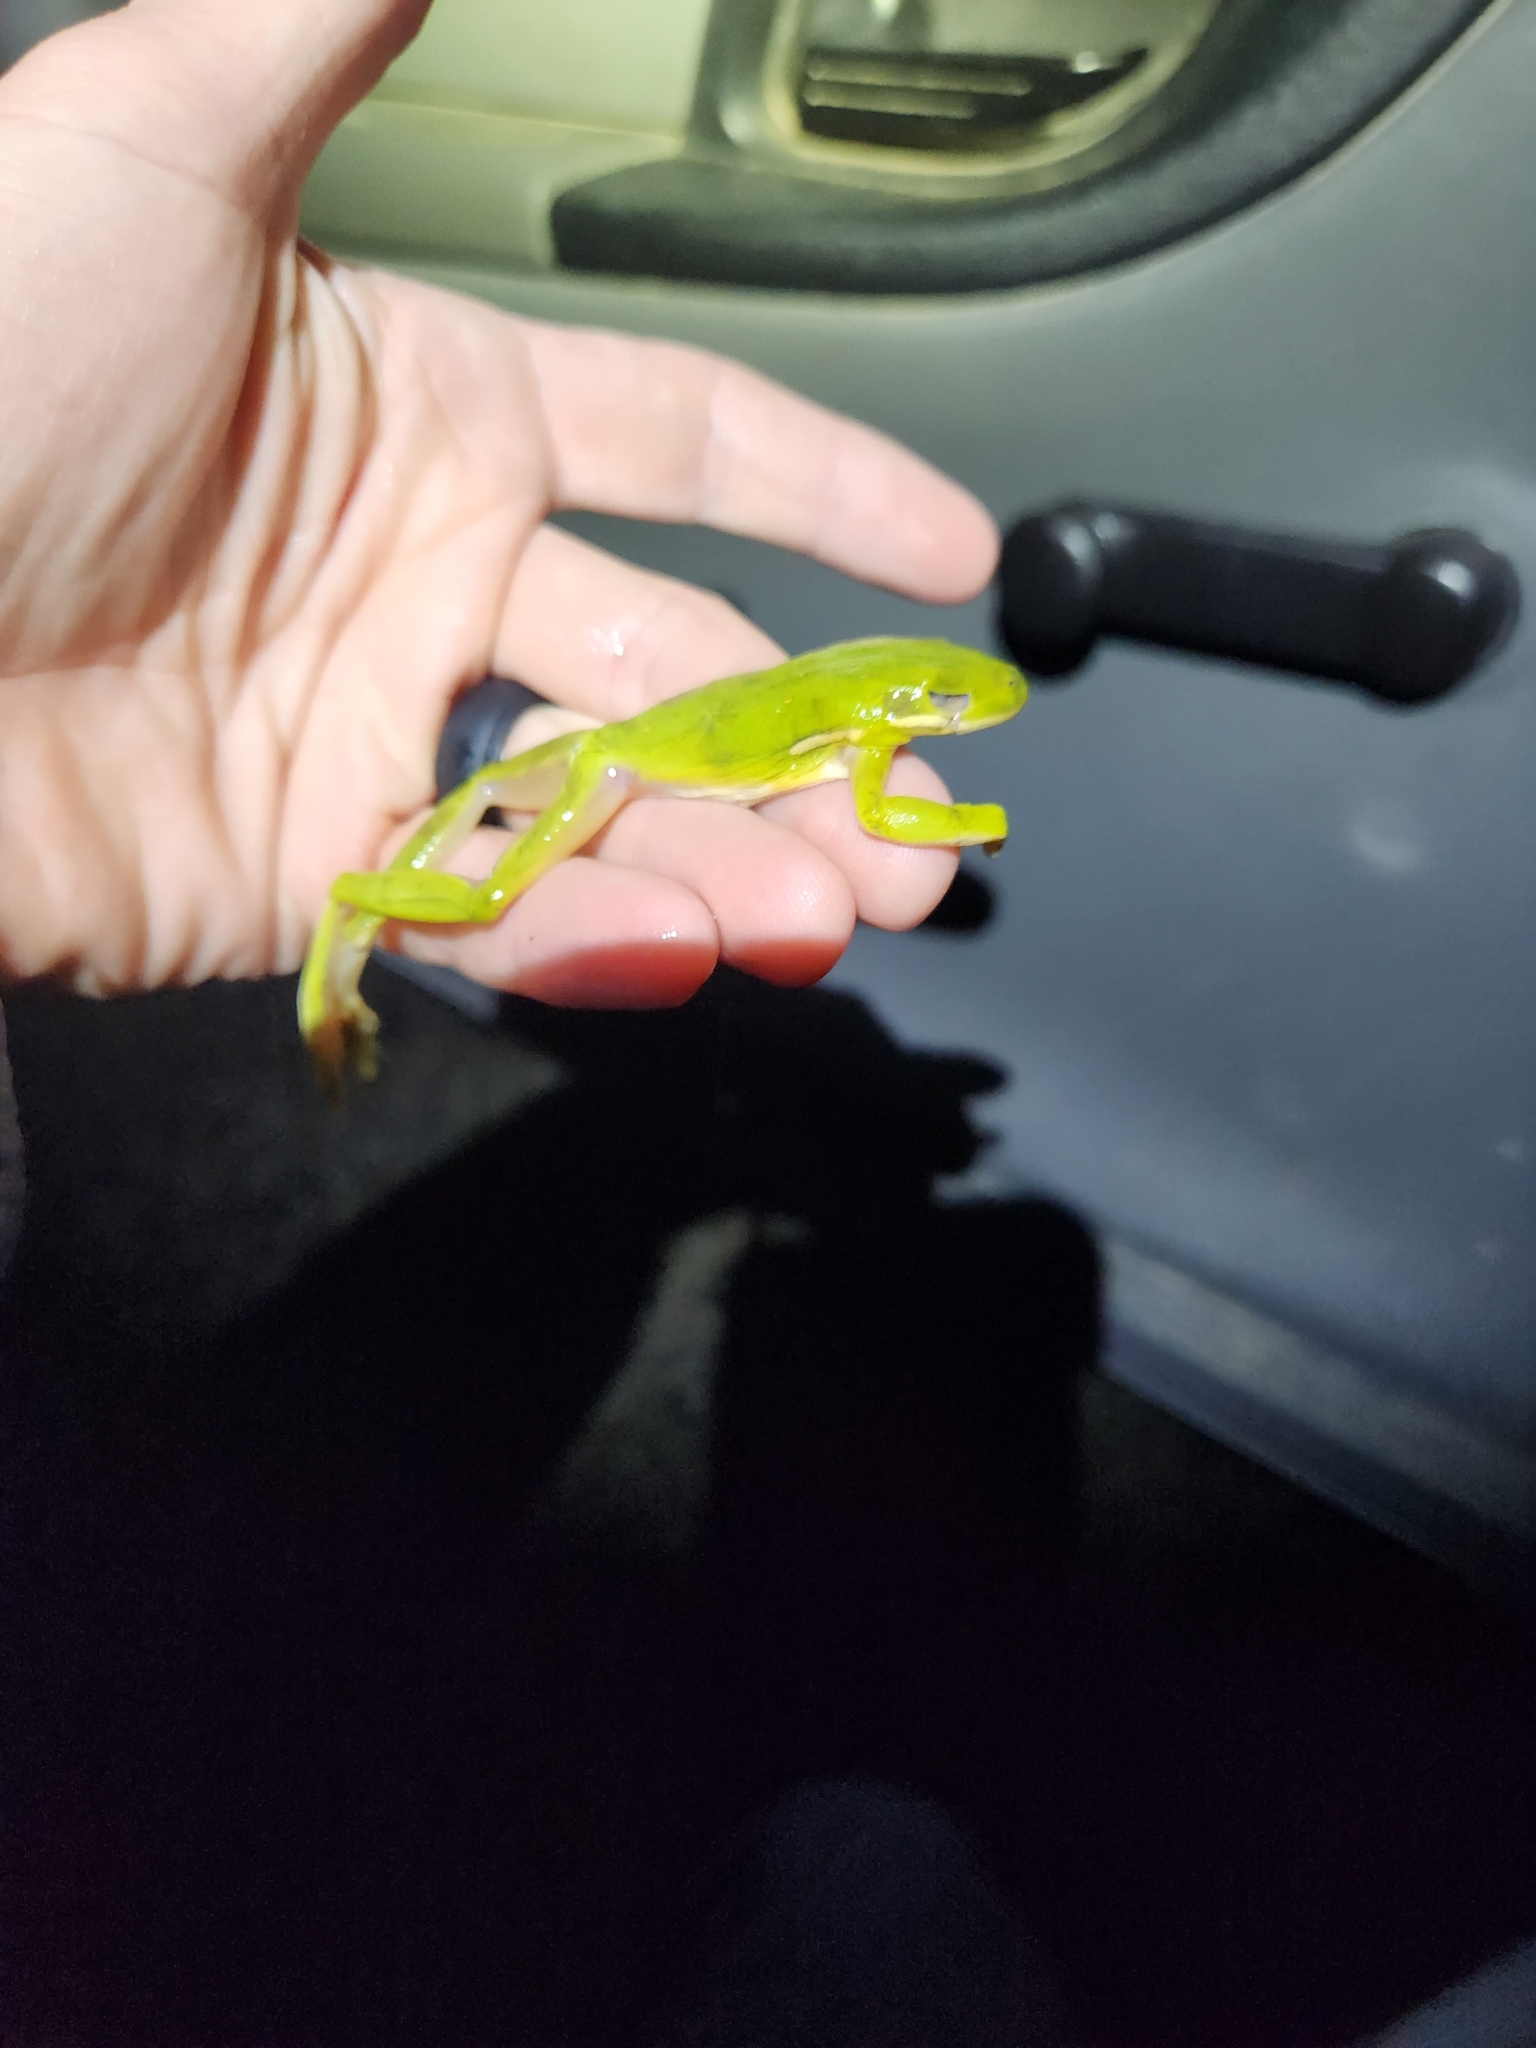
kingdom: Animalia
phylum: Chordata
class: Amphibia
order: Anura
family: Hylidae
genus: Dryophytes
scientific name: Dryophytes cinereus
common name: Green treefrog
